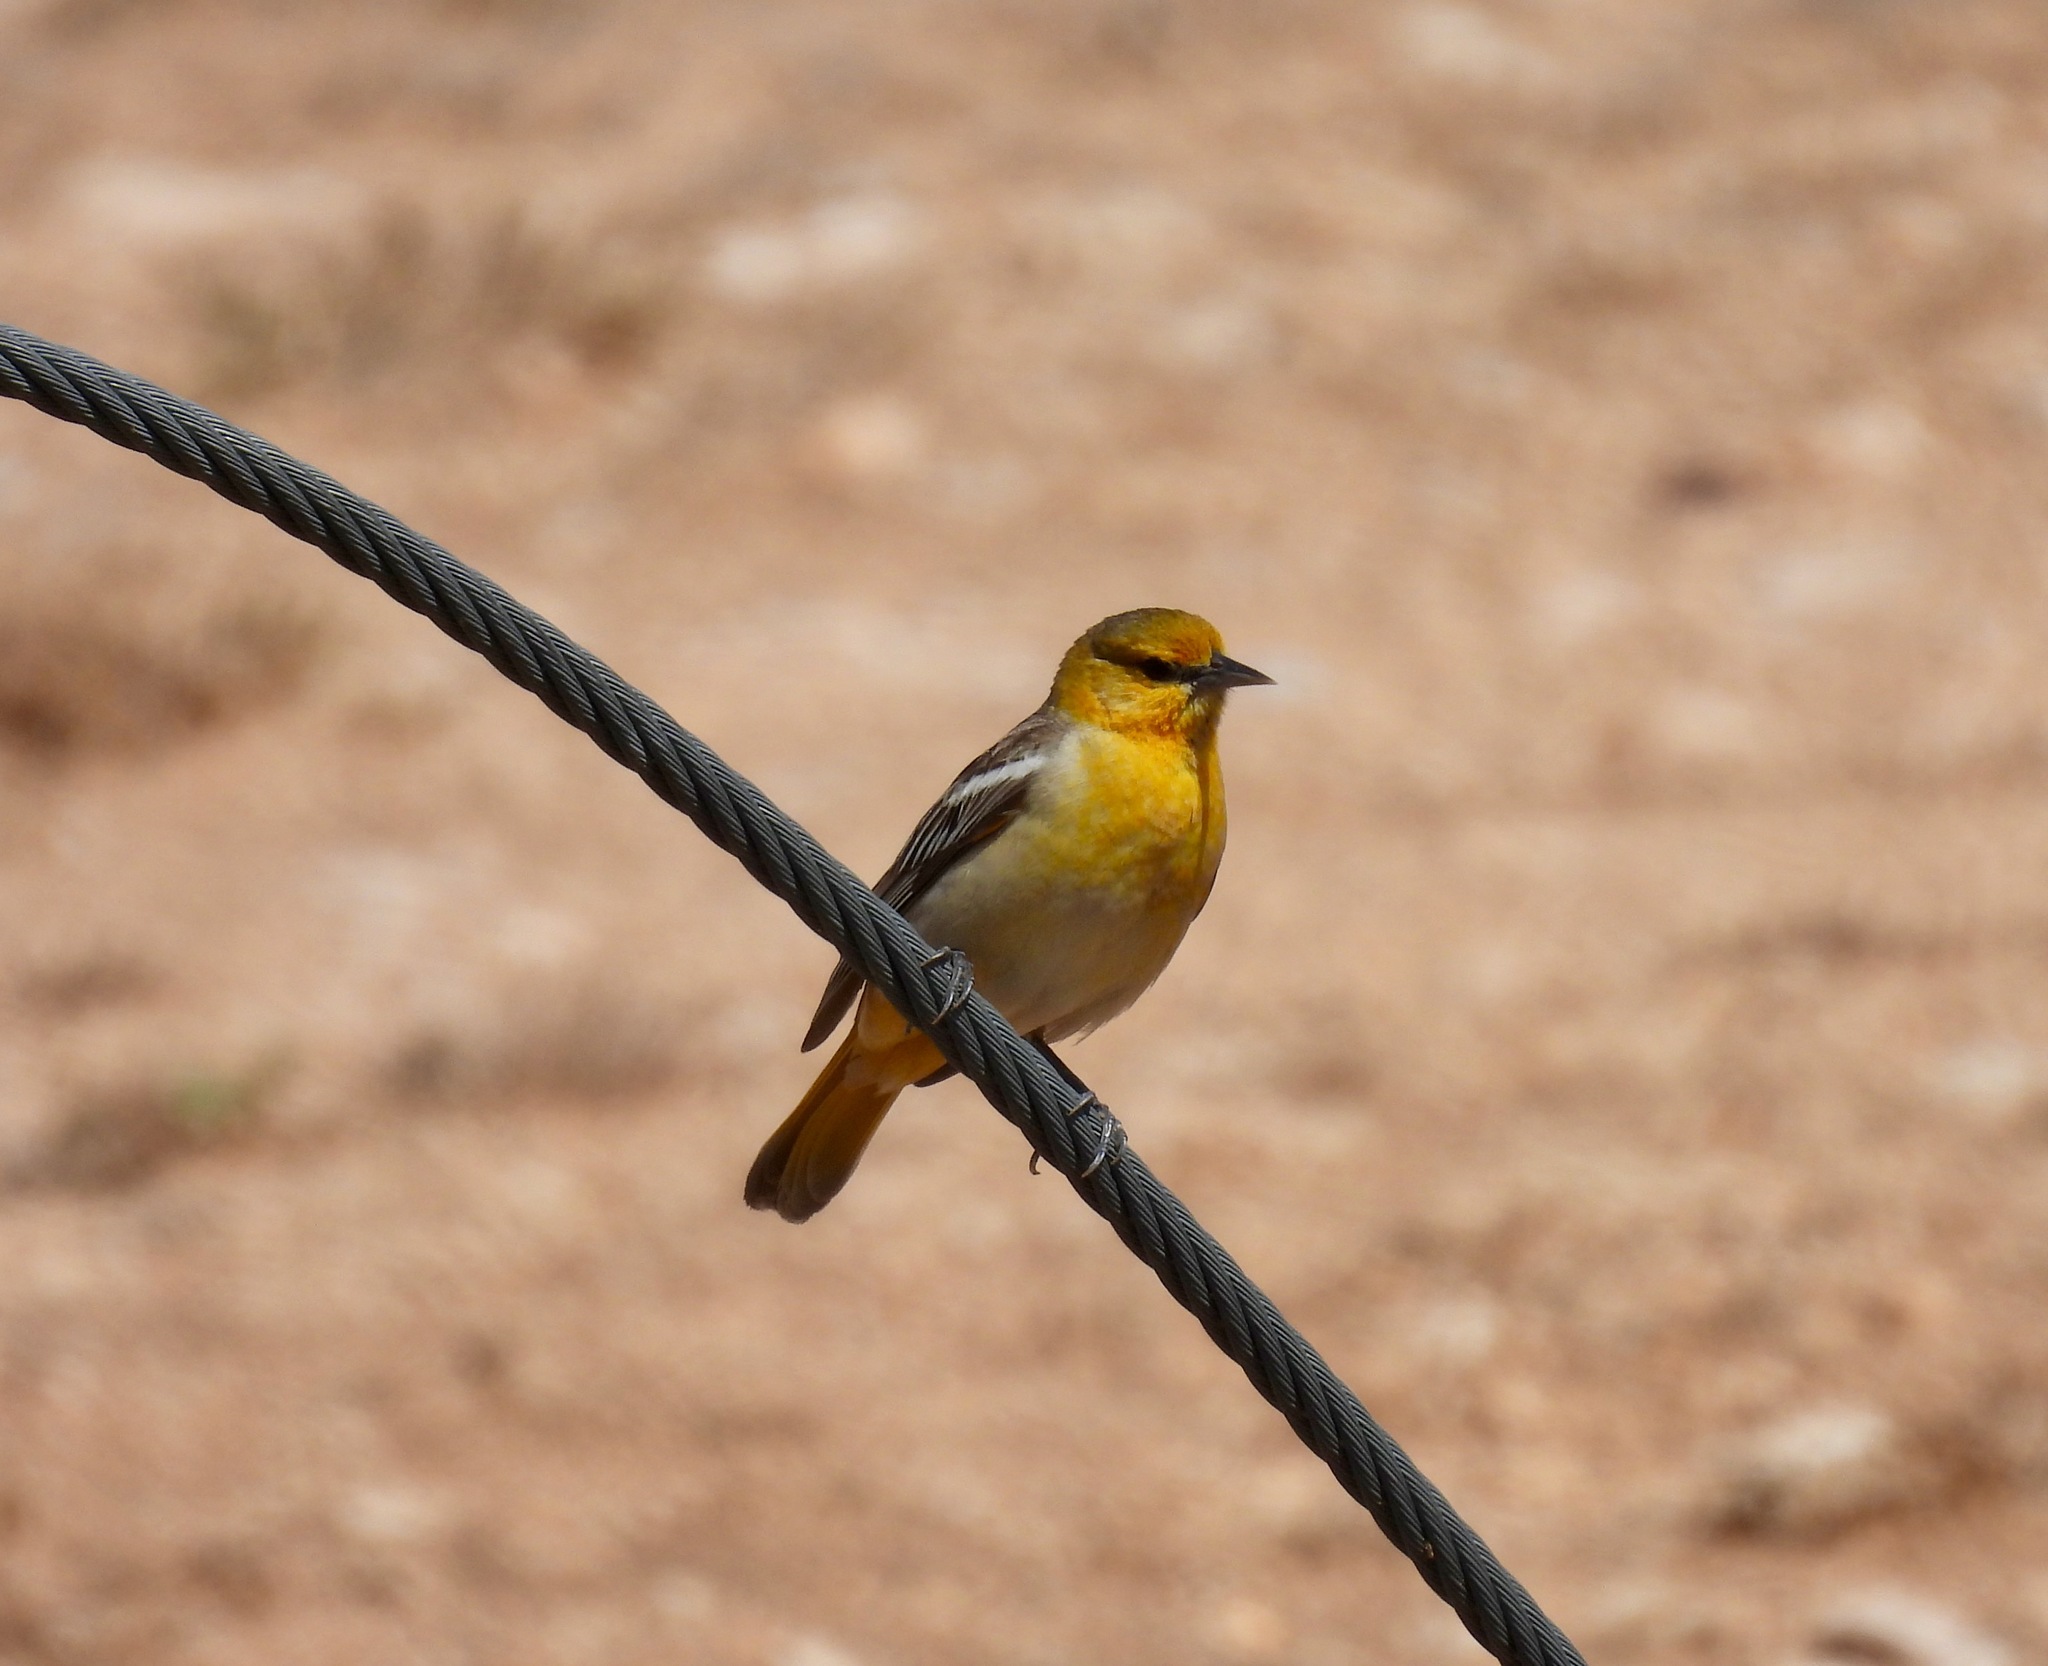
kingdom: Animalia
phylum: Chordata
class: Aves
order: Passeriformes
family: Icteridae
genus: Icterus
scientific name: Icterus bullockii
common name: Bullock's oriole
